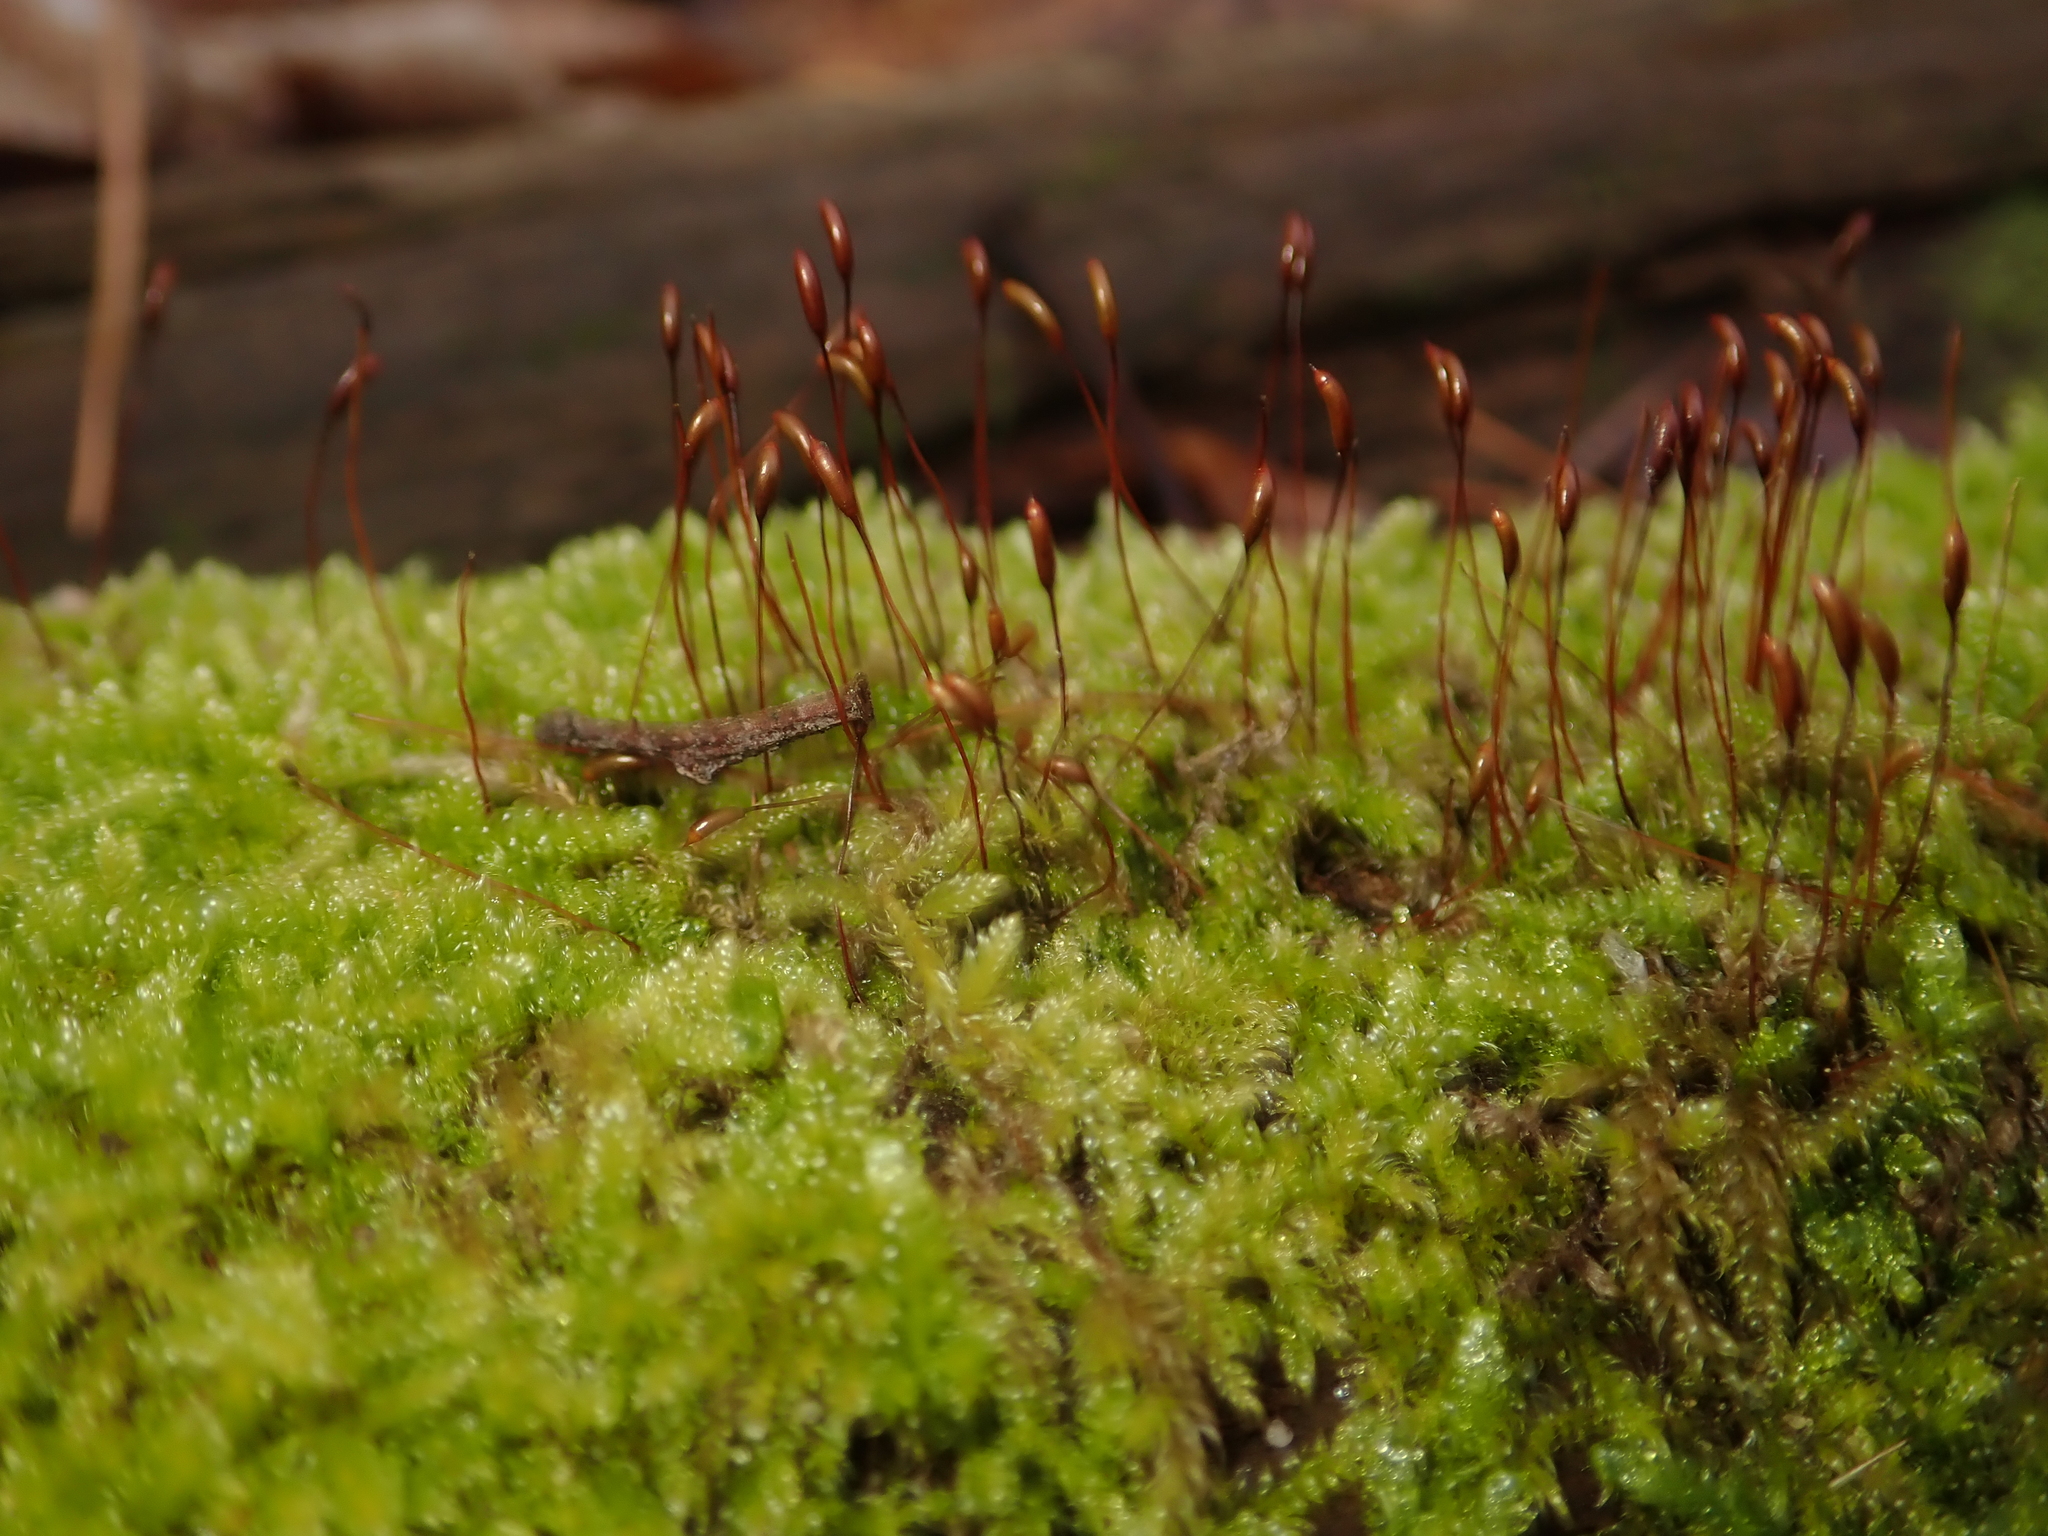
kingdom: Plantae
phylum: Bryophyta
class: Bryopsida
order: Hypnales
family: Hypnaceae
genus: Hypnum
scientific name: Hypnum cupressiforme
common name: Cypress-leaved plait-moss
